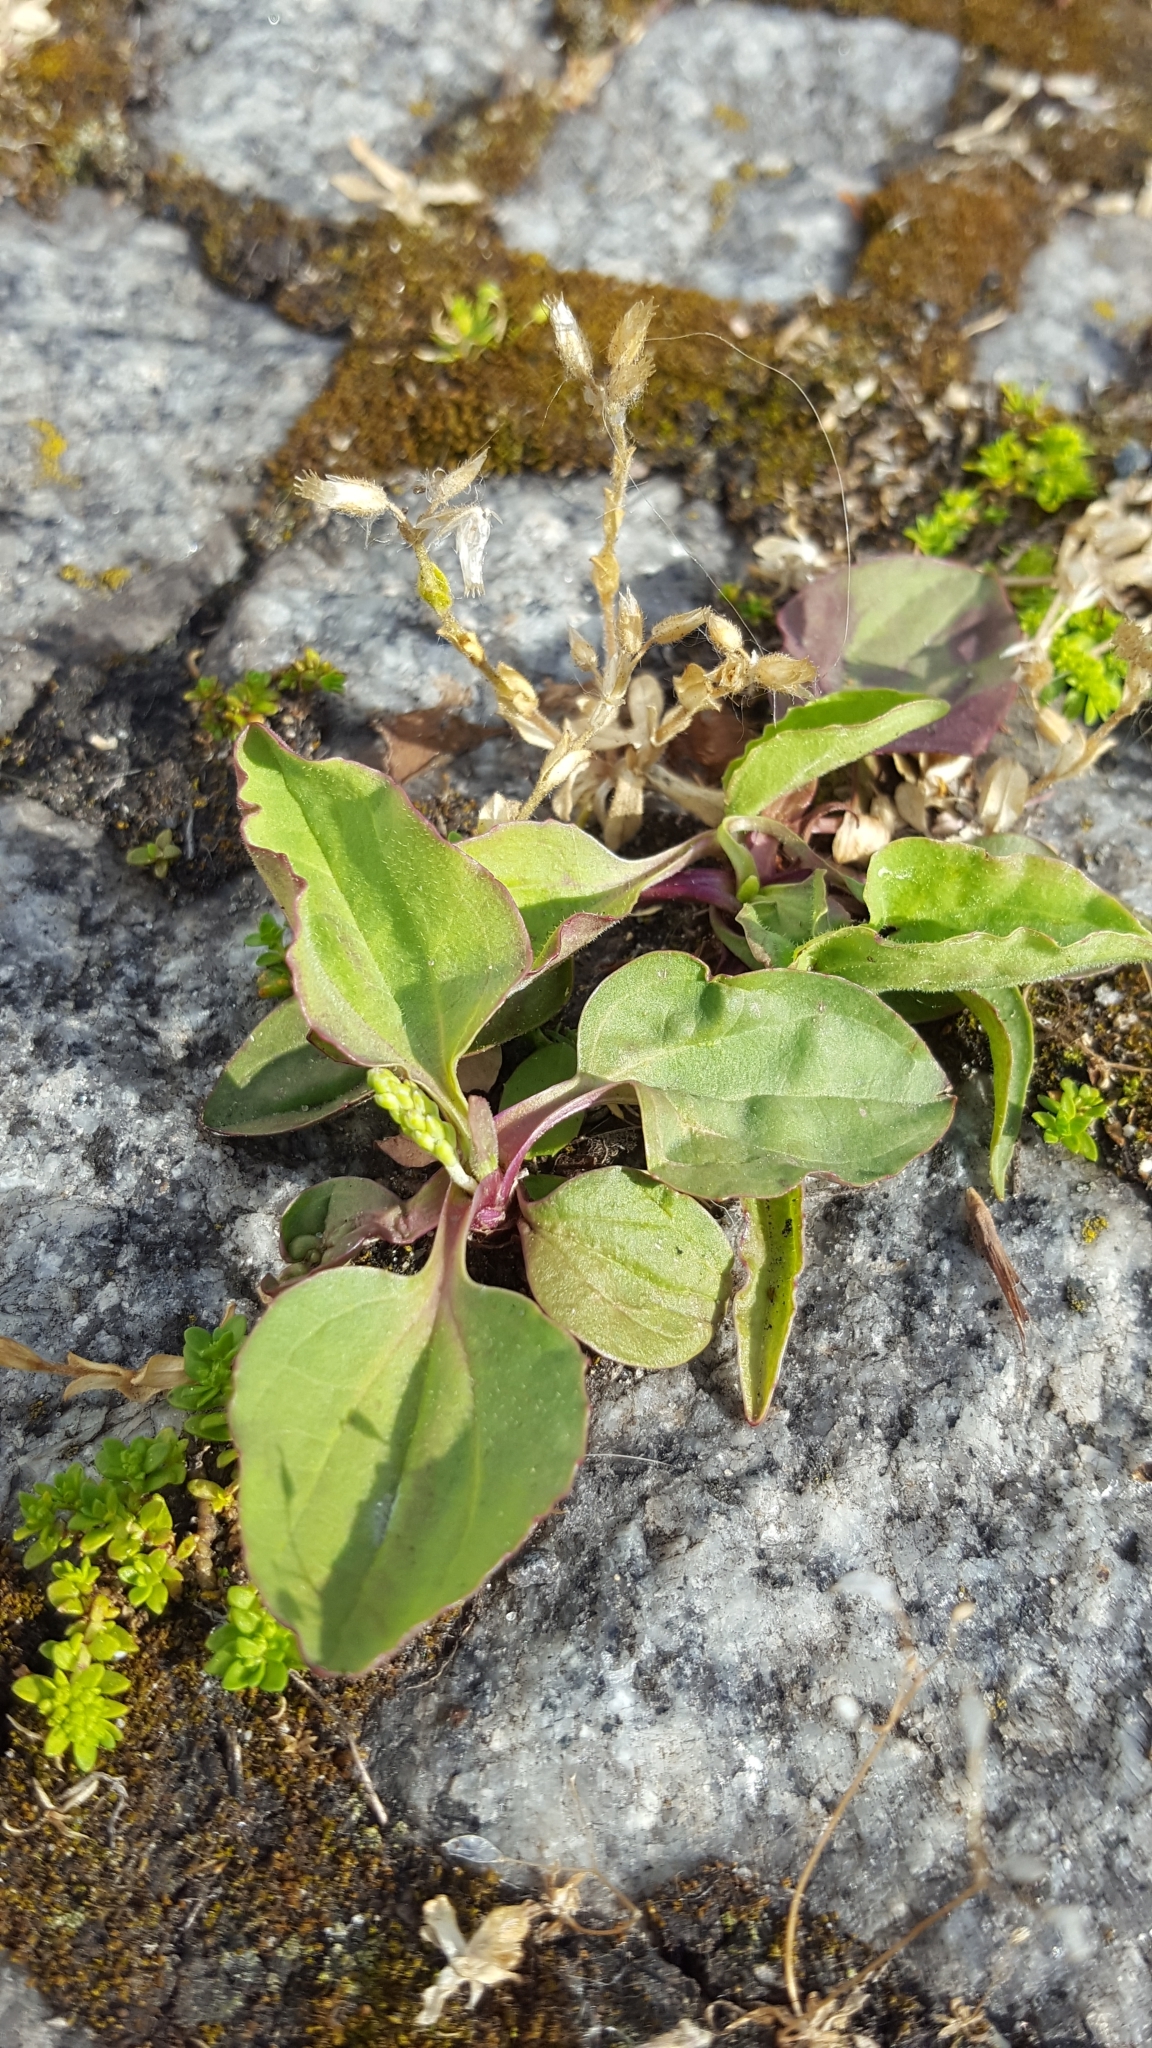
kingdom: Plantae
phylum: Tracheophyta
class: Magnoliopsida
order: Lamiales
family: Plantaginaceae
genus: Plantago
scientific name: Plantago major
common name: Common plantain
